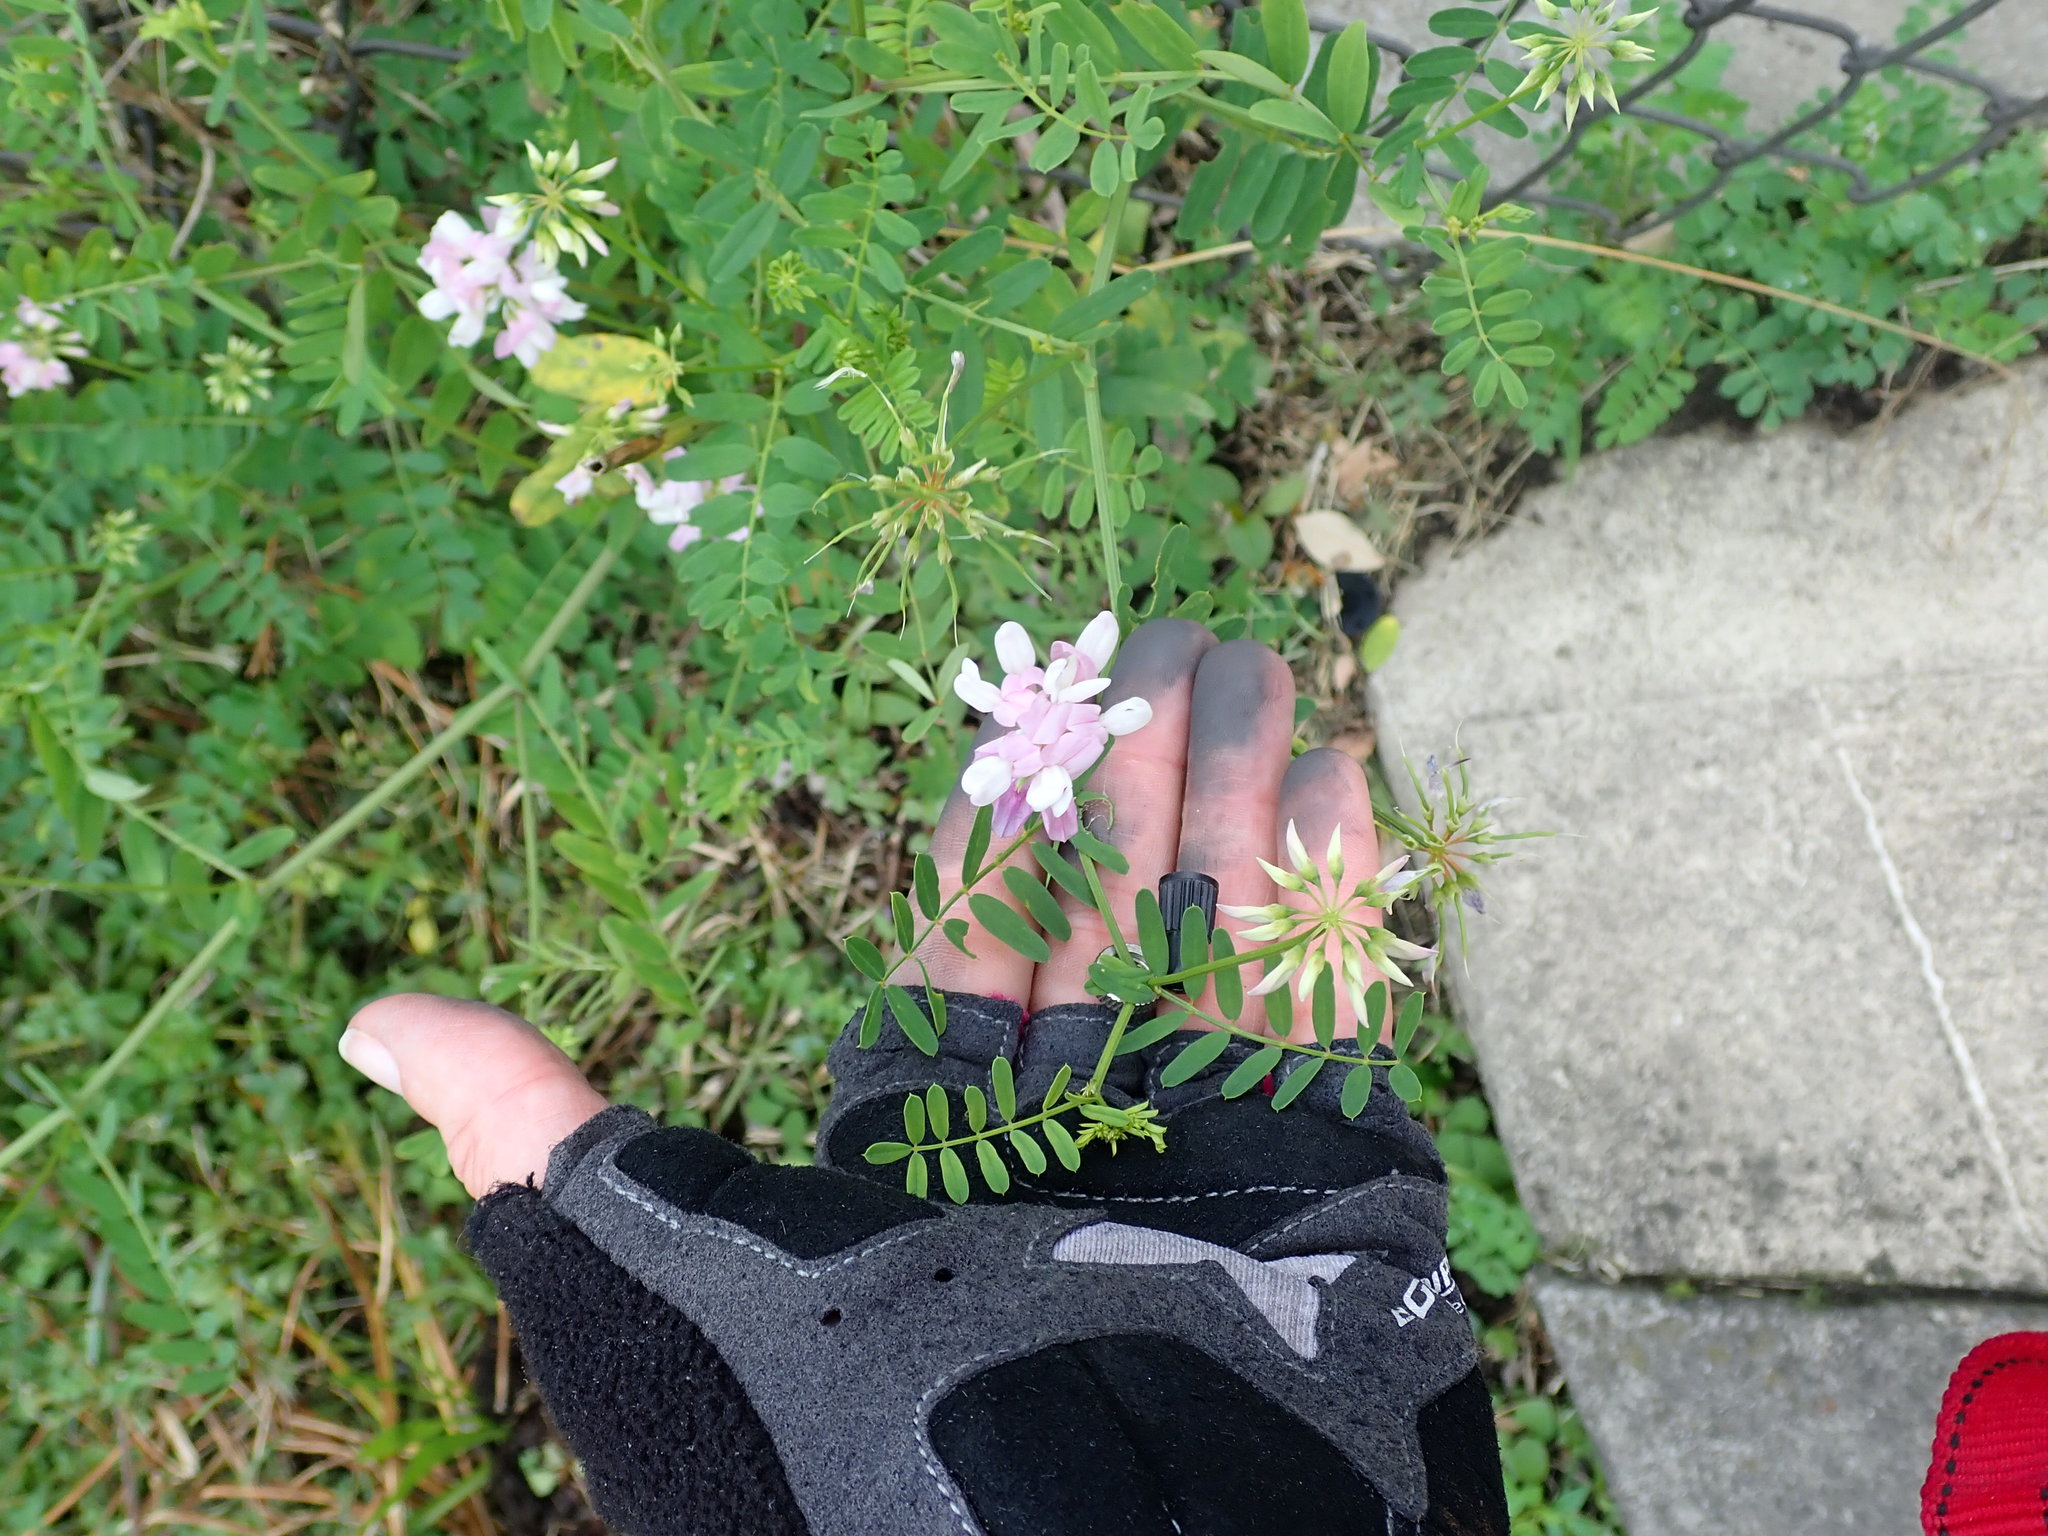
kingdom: Plantae
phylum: Tracheophyta
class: Magnoliopsida
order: Fabales
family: Fabaceae
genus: Coronilla
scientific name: Coronilla varia
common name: Crownvetch
